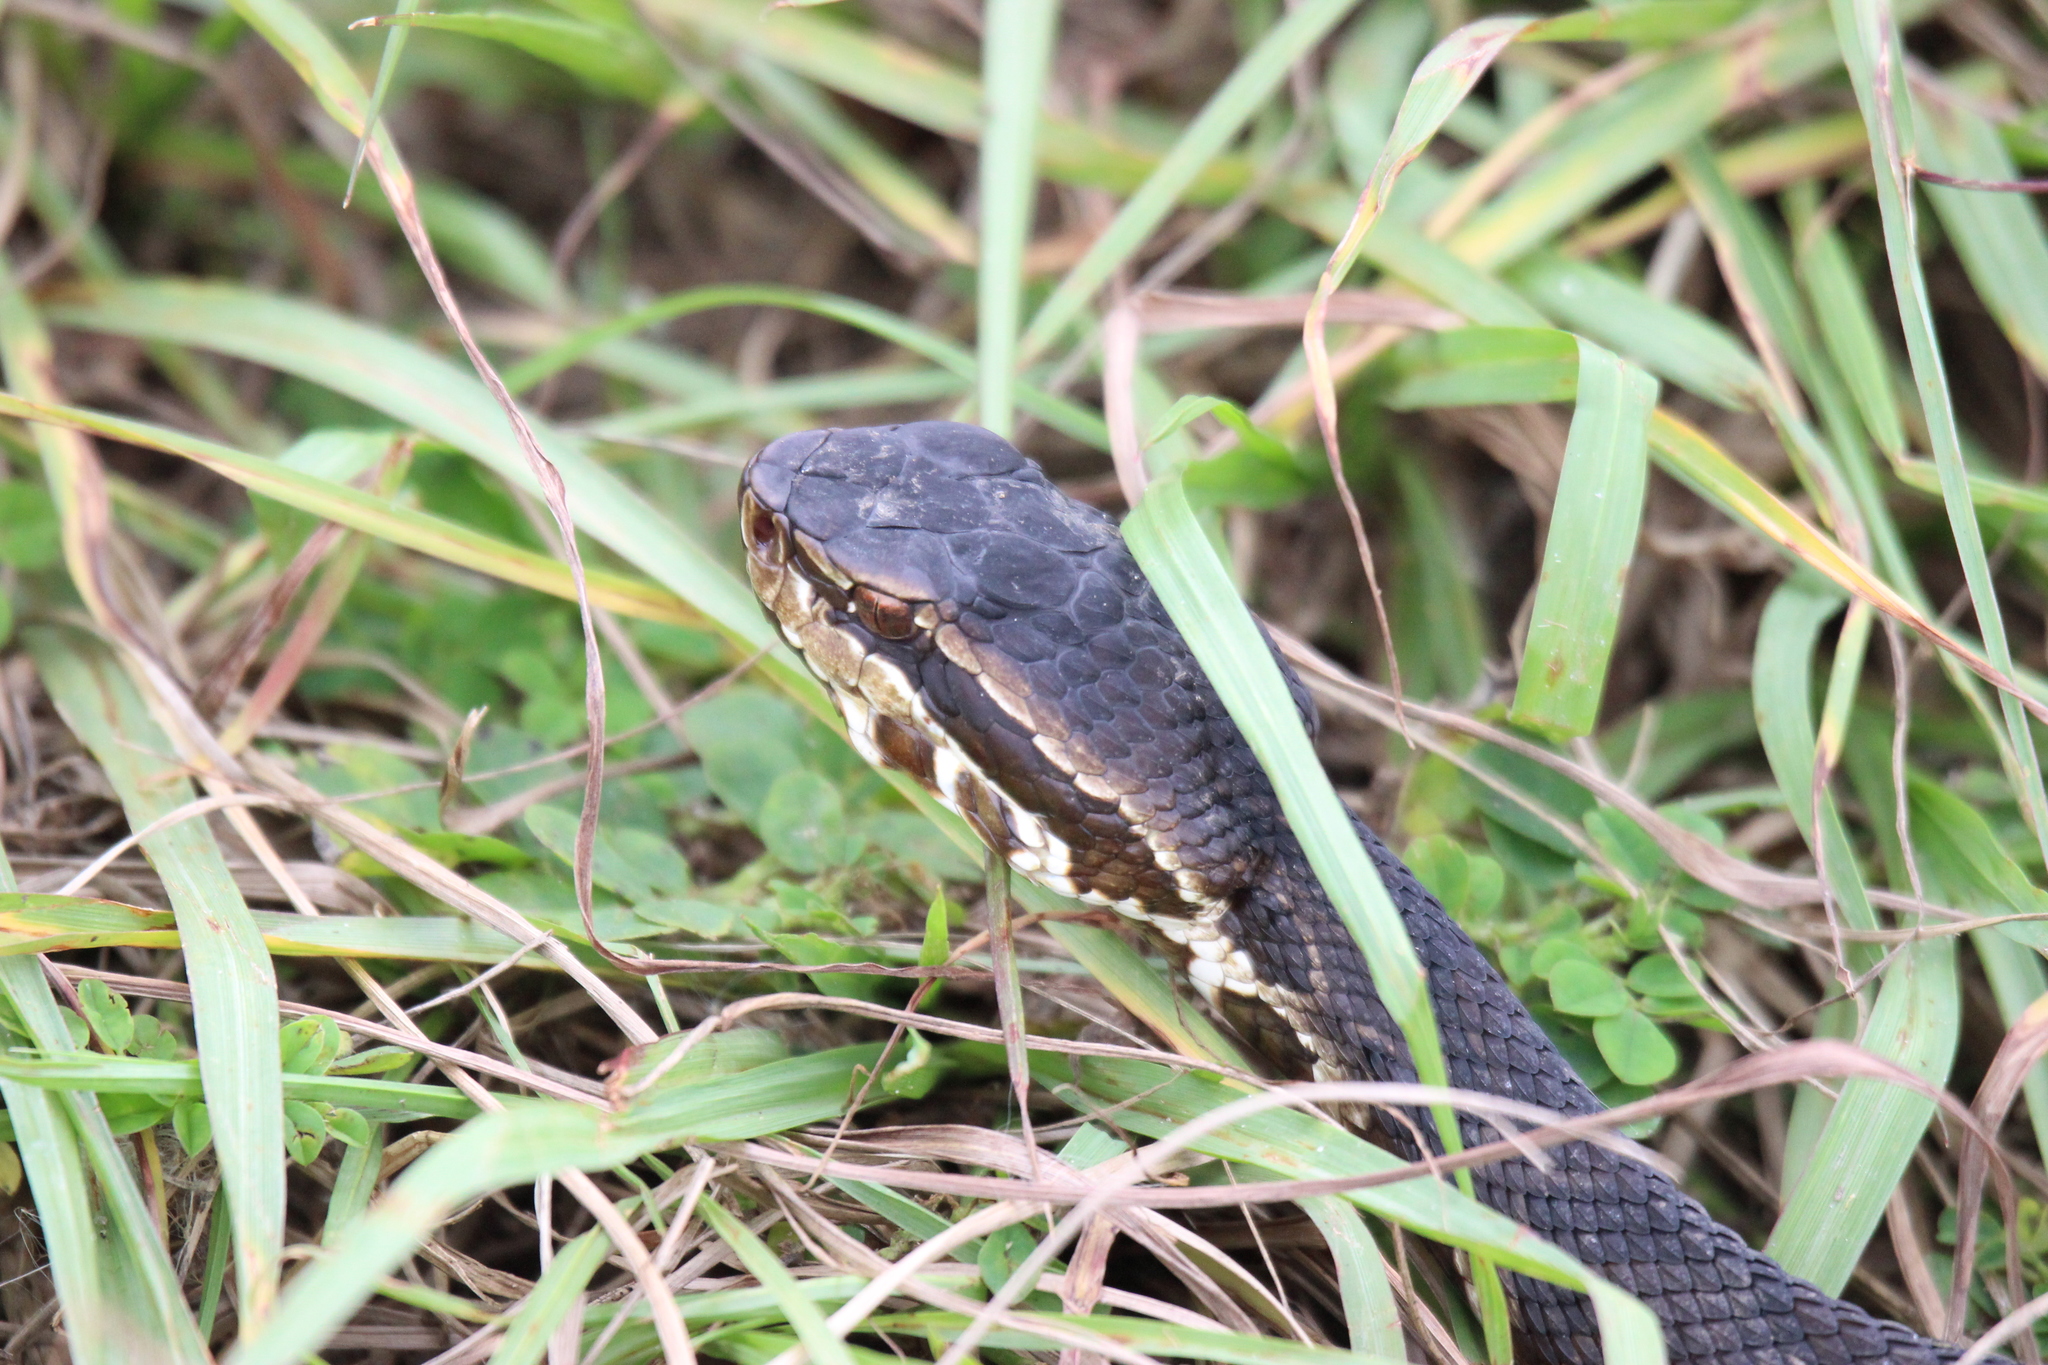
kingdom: Animalia
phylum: Chordata
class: Squamata
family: Viperidae
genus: Agkistrodon
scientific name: Agkistrodon conanti
